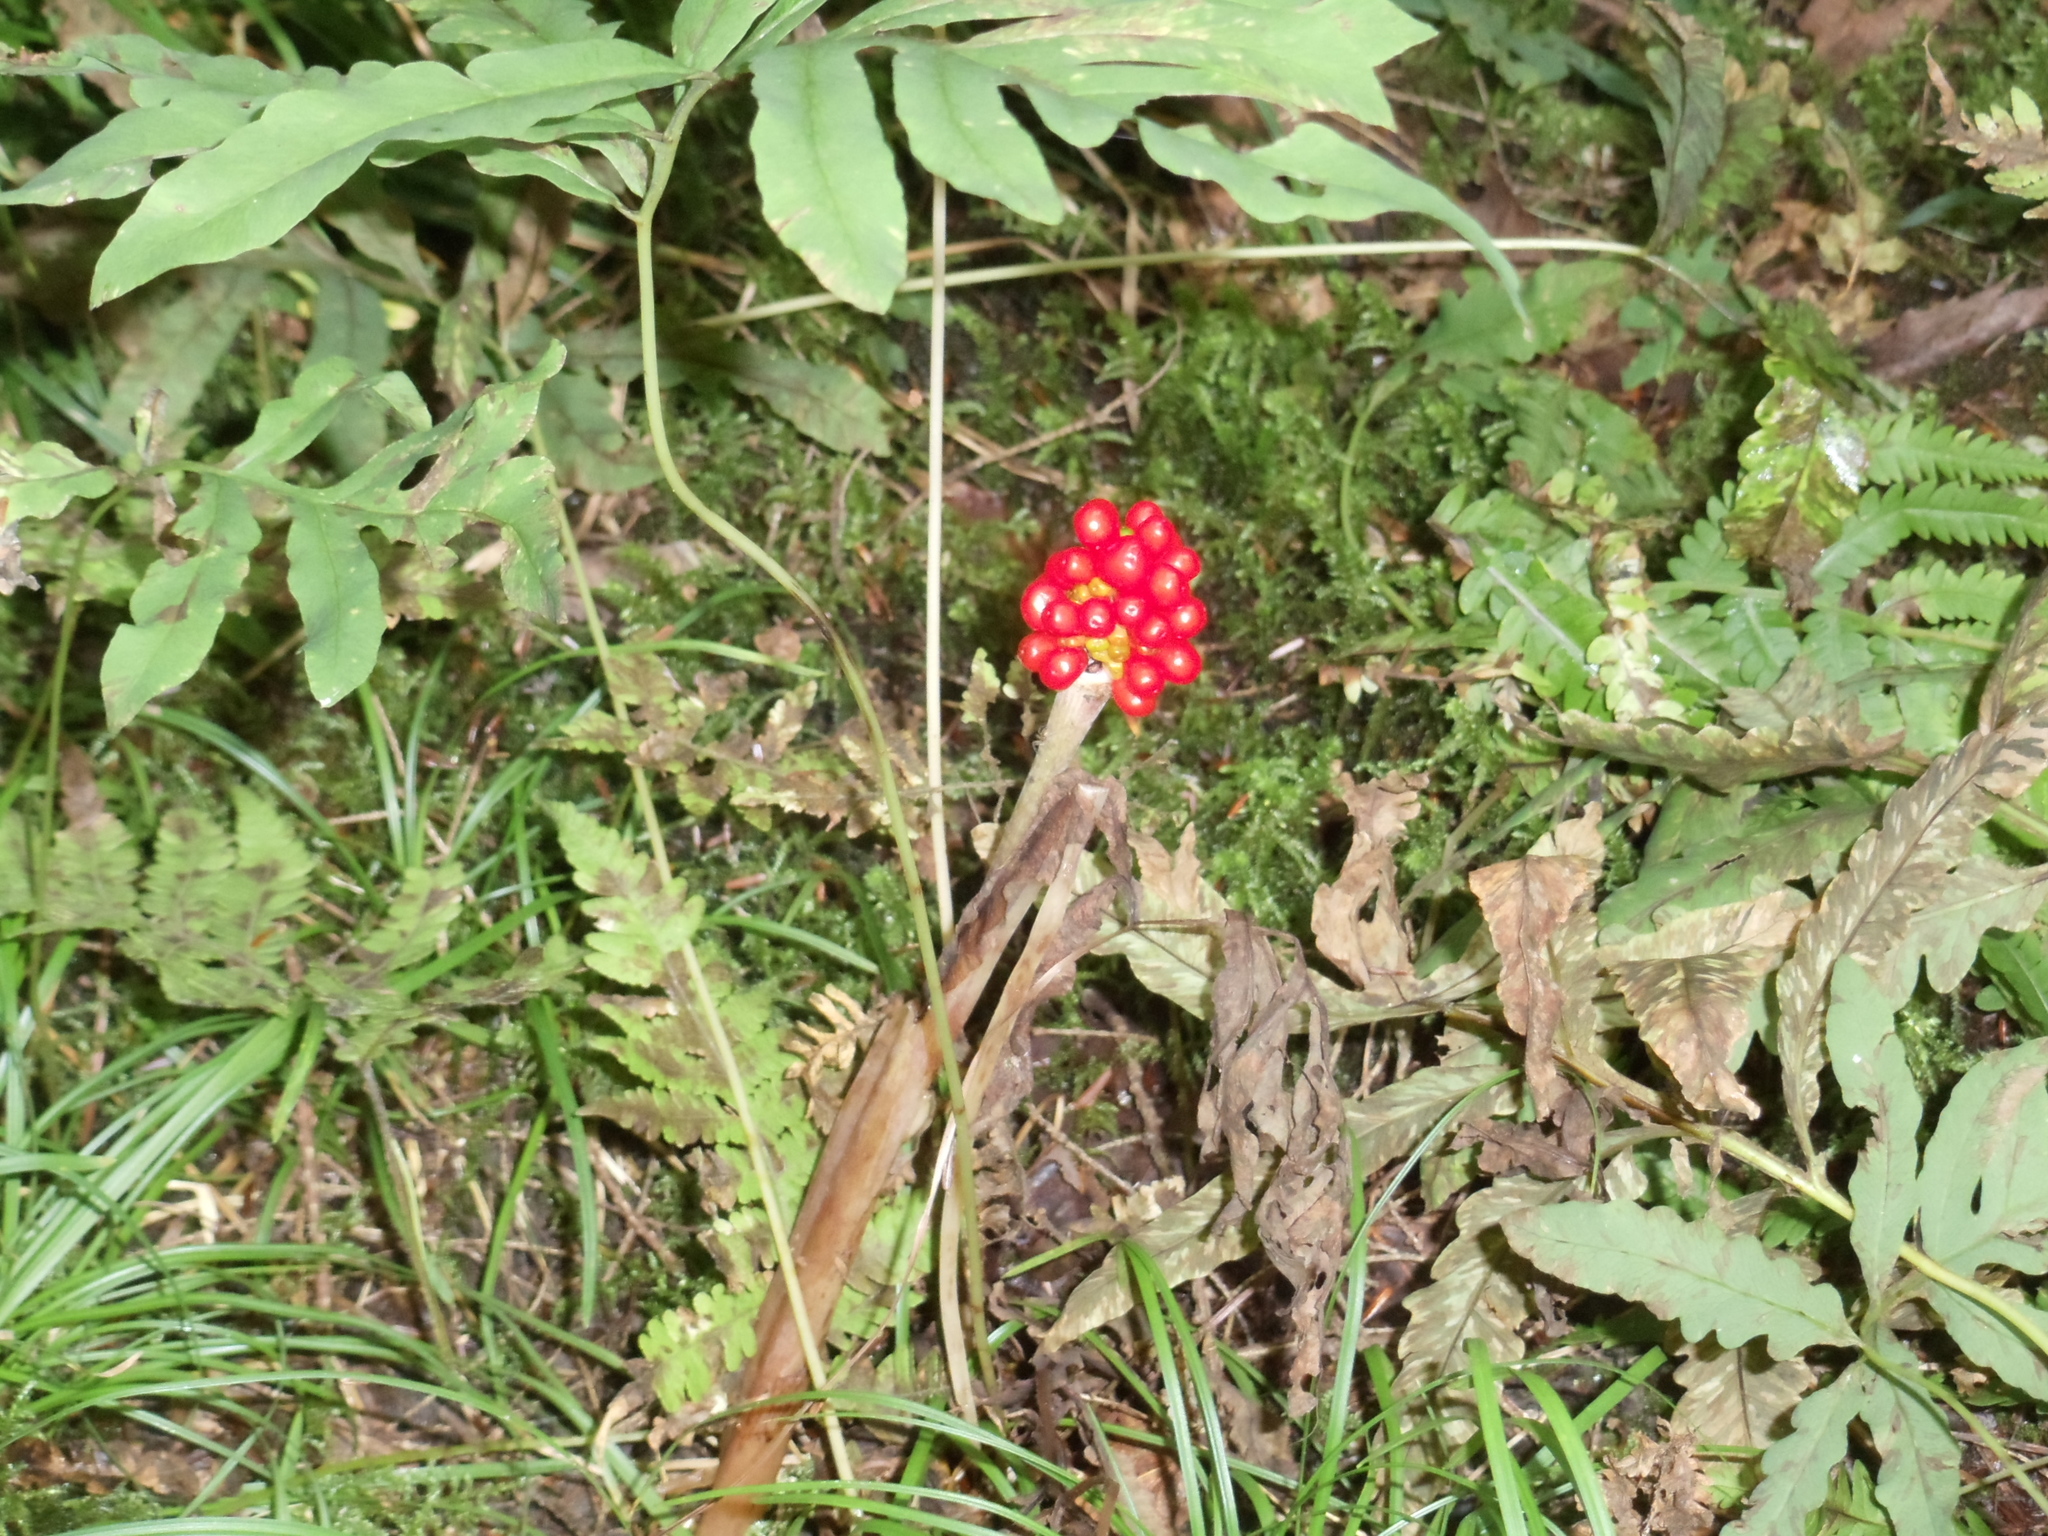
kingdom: Plantae
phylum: Tracheophyta
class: Liliopsida
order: Alismatales
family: Araceae
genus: Arisaema
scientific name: Arisaema triphyllum
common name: Jack-in-the-pulpit
